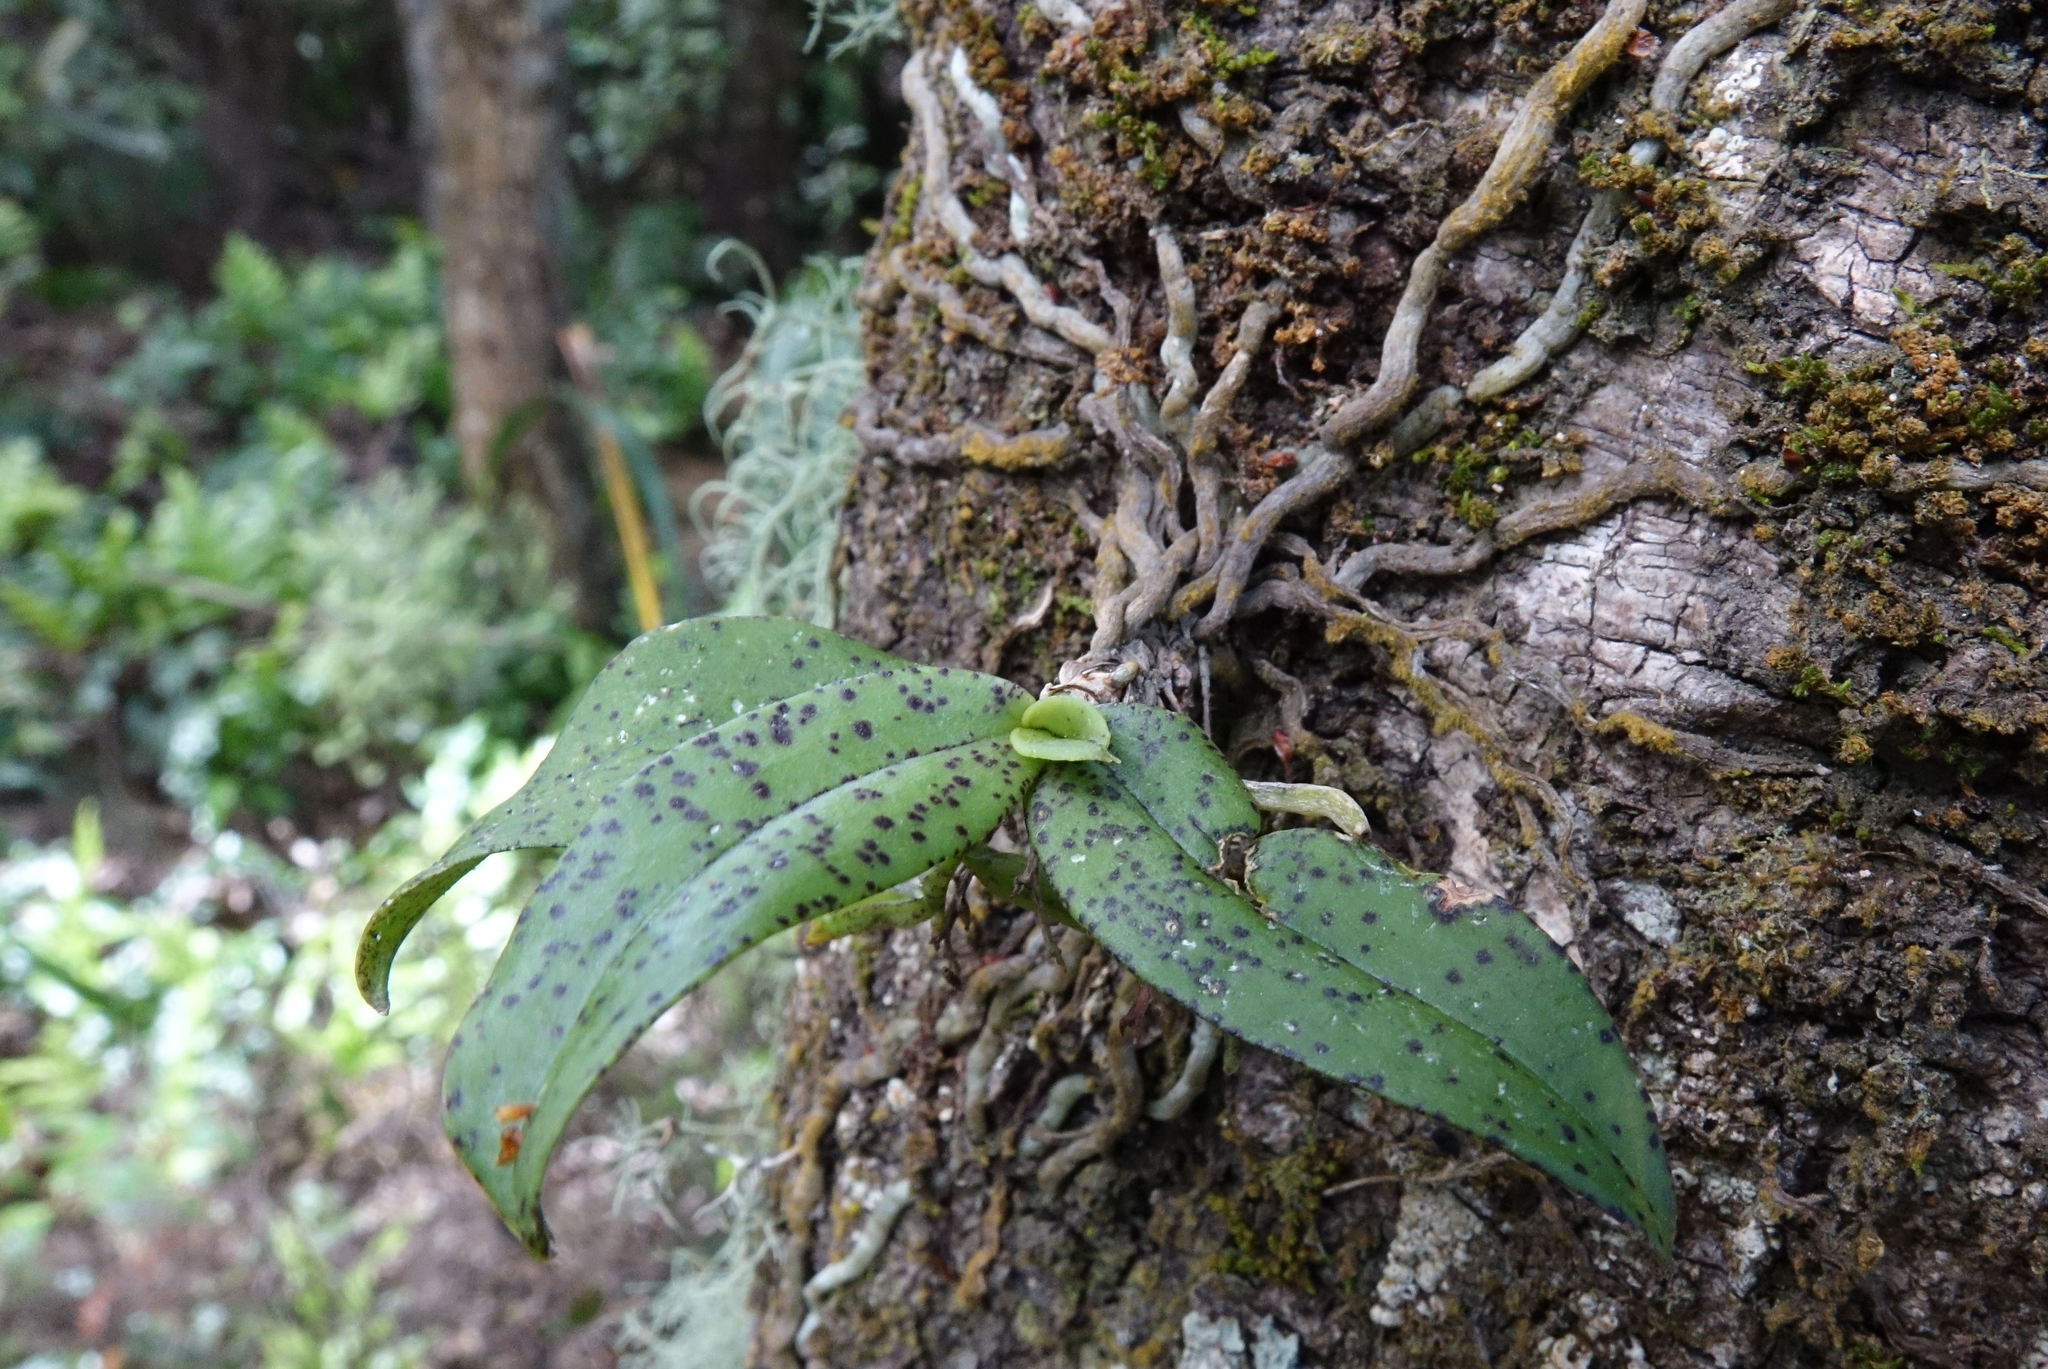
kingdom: Plantae
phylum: Tracheophyta
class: Liliopsida
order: Asparagales
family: Orchidaceae
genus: Drymoanthus
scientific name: Drymoanthus flavus
